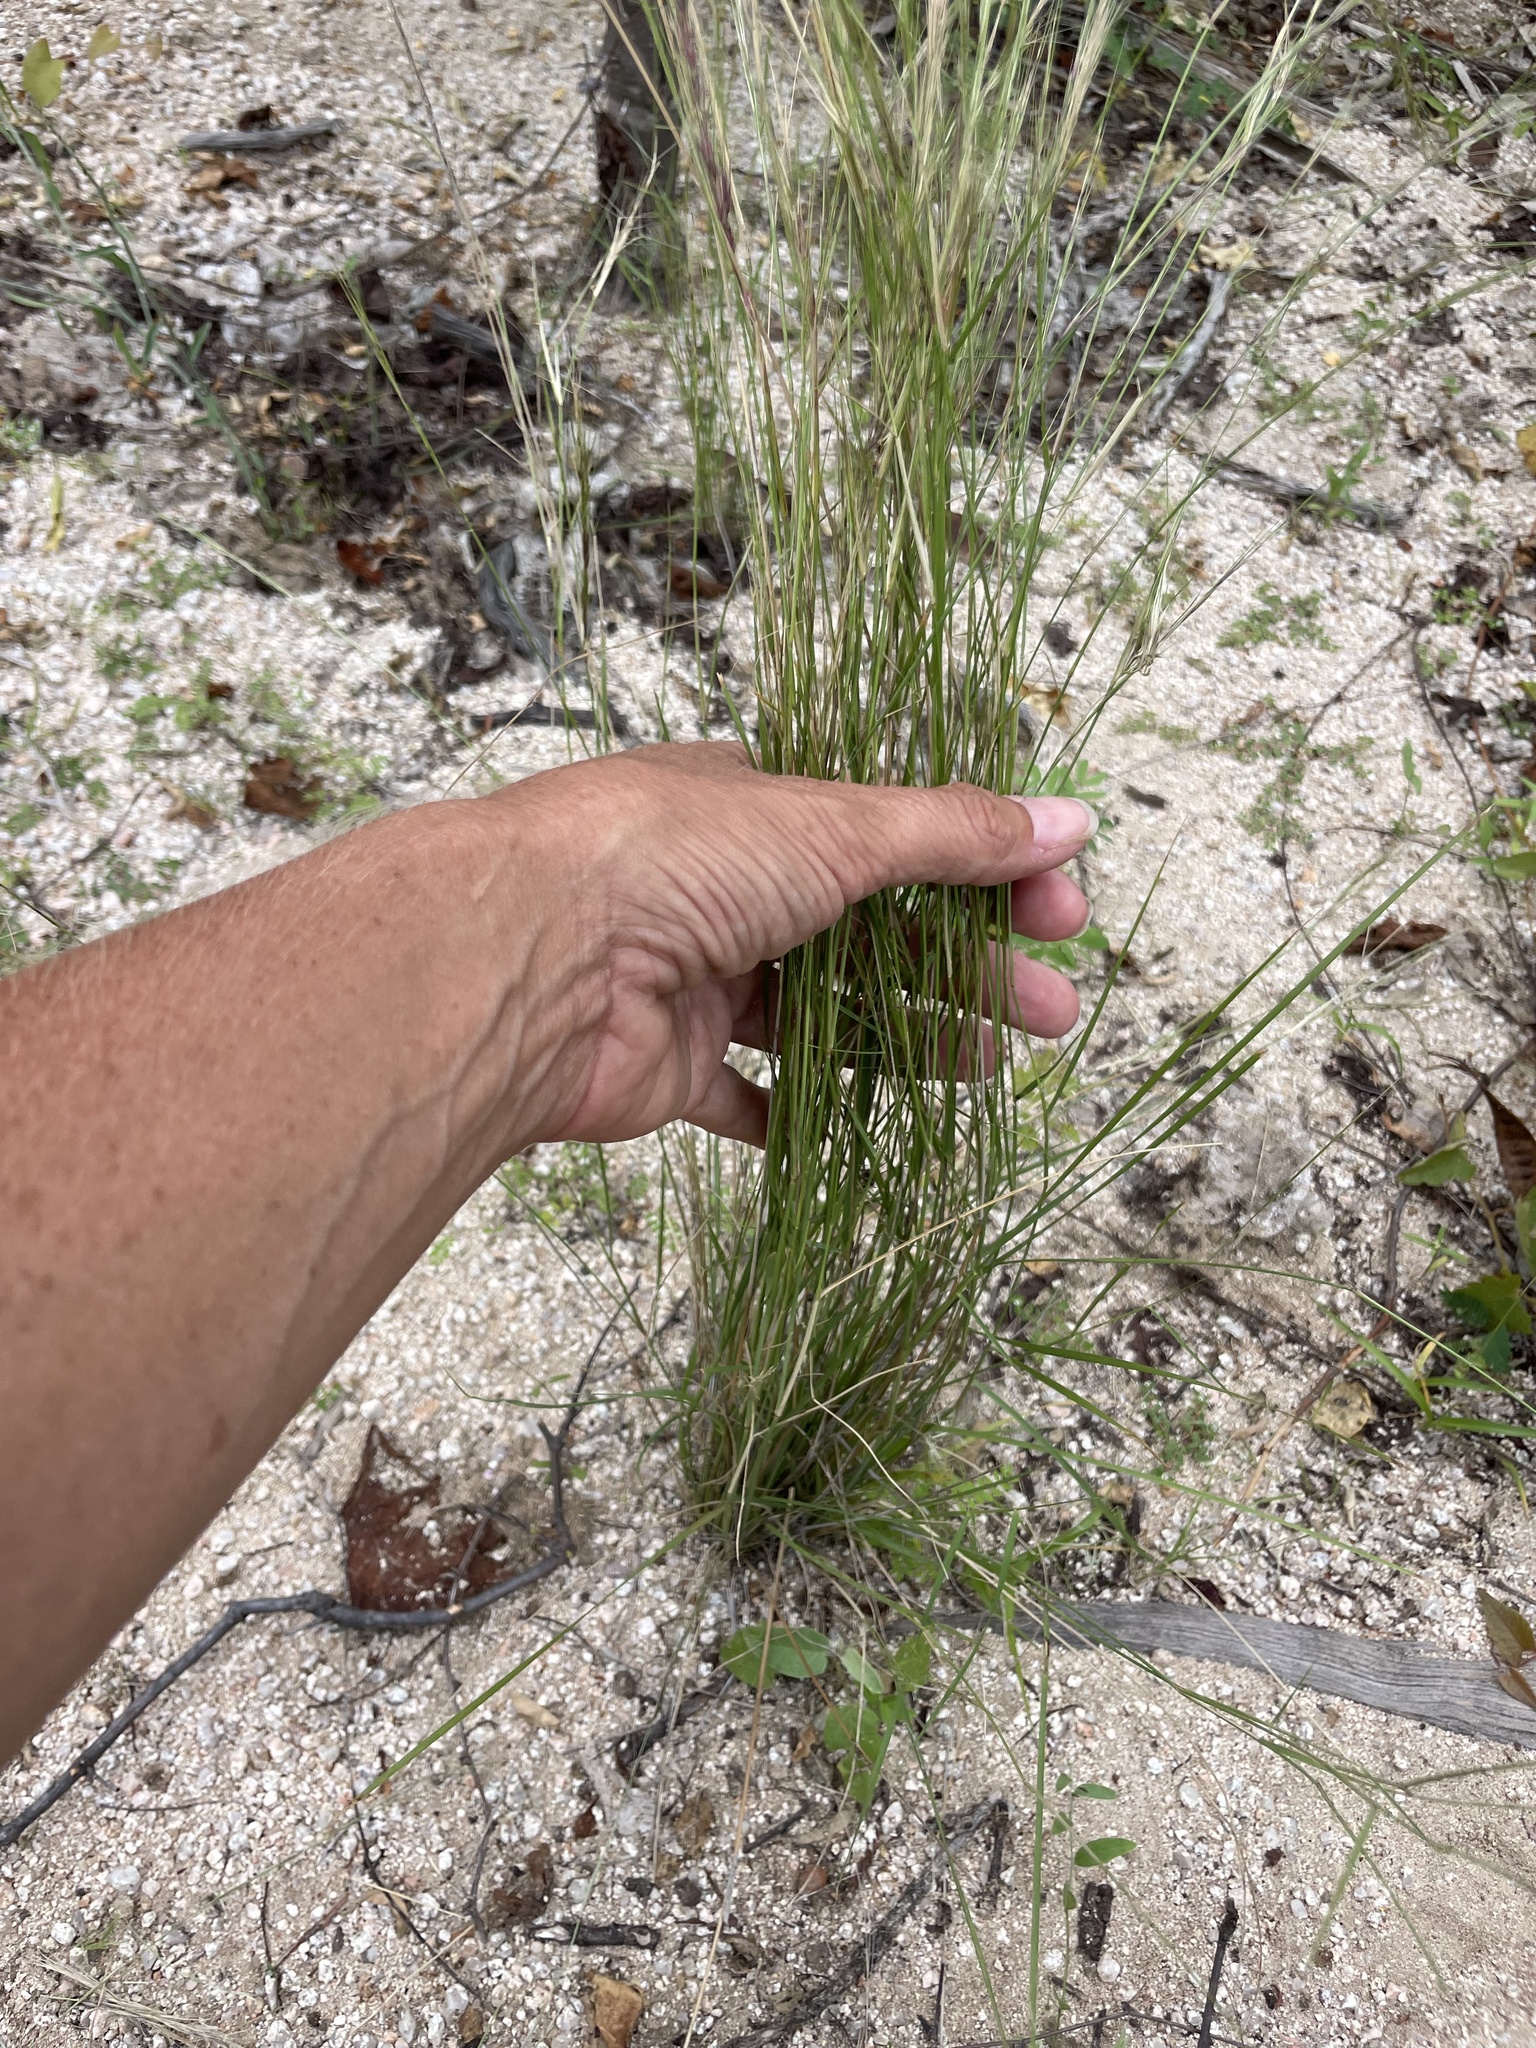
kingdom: Plantae
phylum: Tracheophyta
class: Liliopsida
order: Poales
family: Poaceae
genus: Aristida
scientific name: Aristida glabrata
